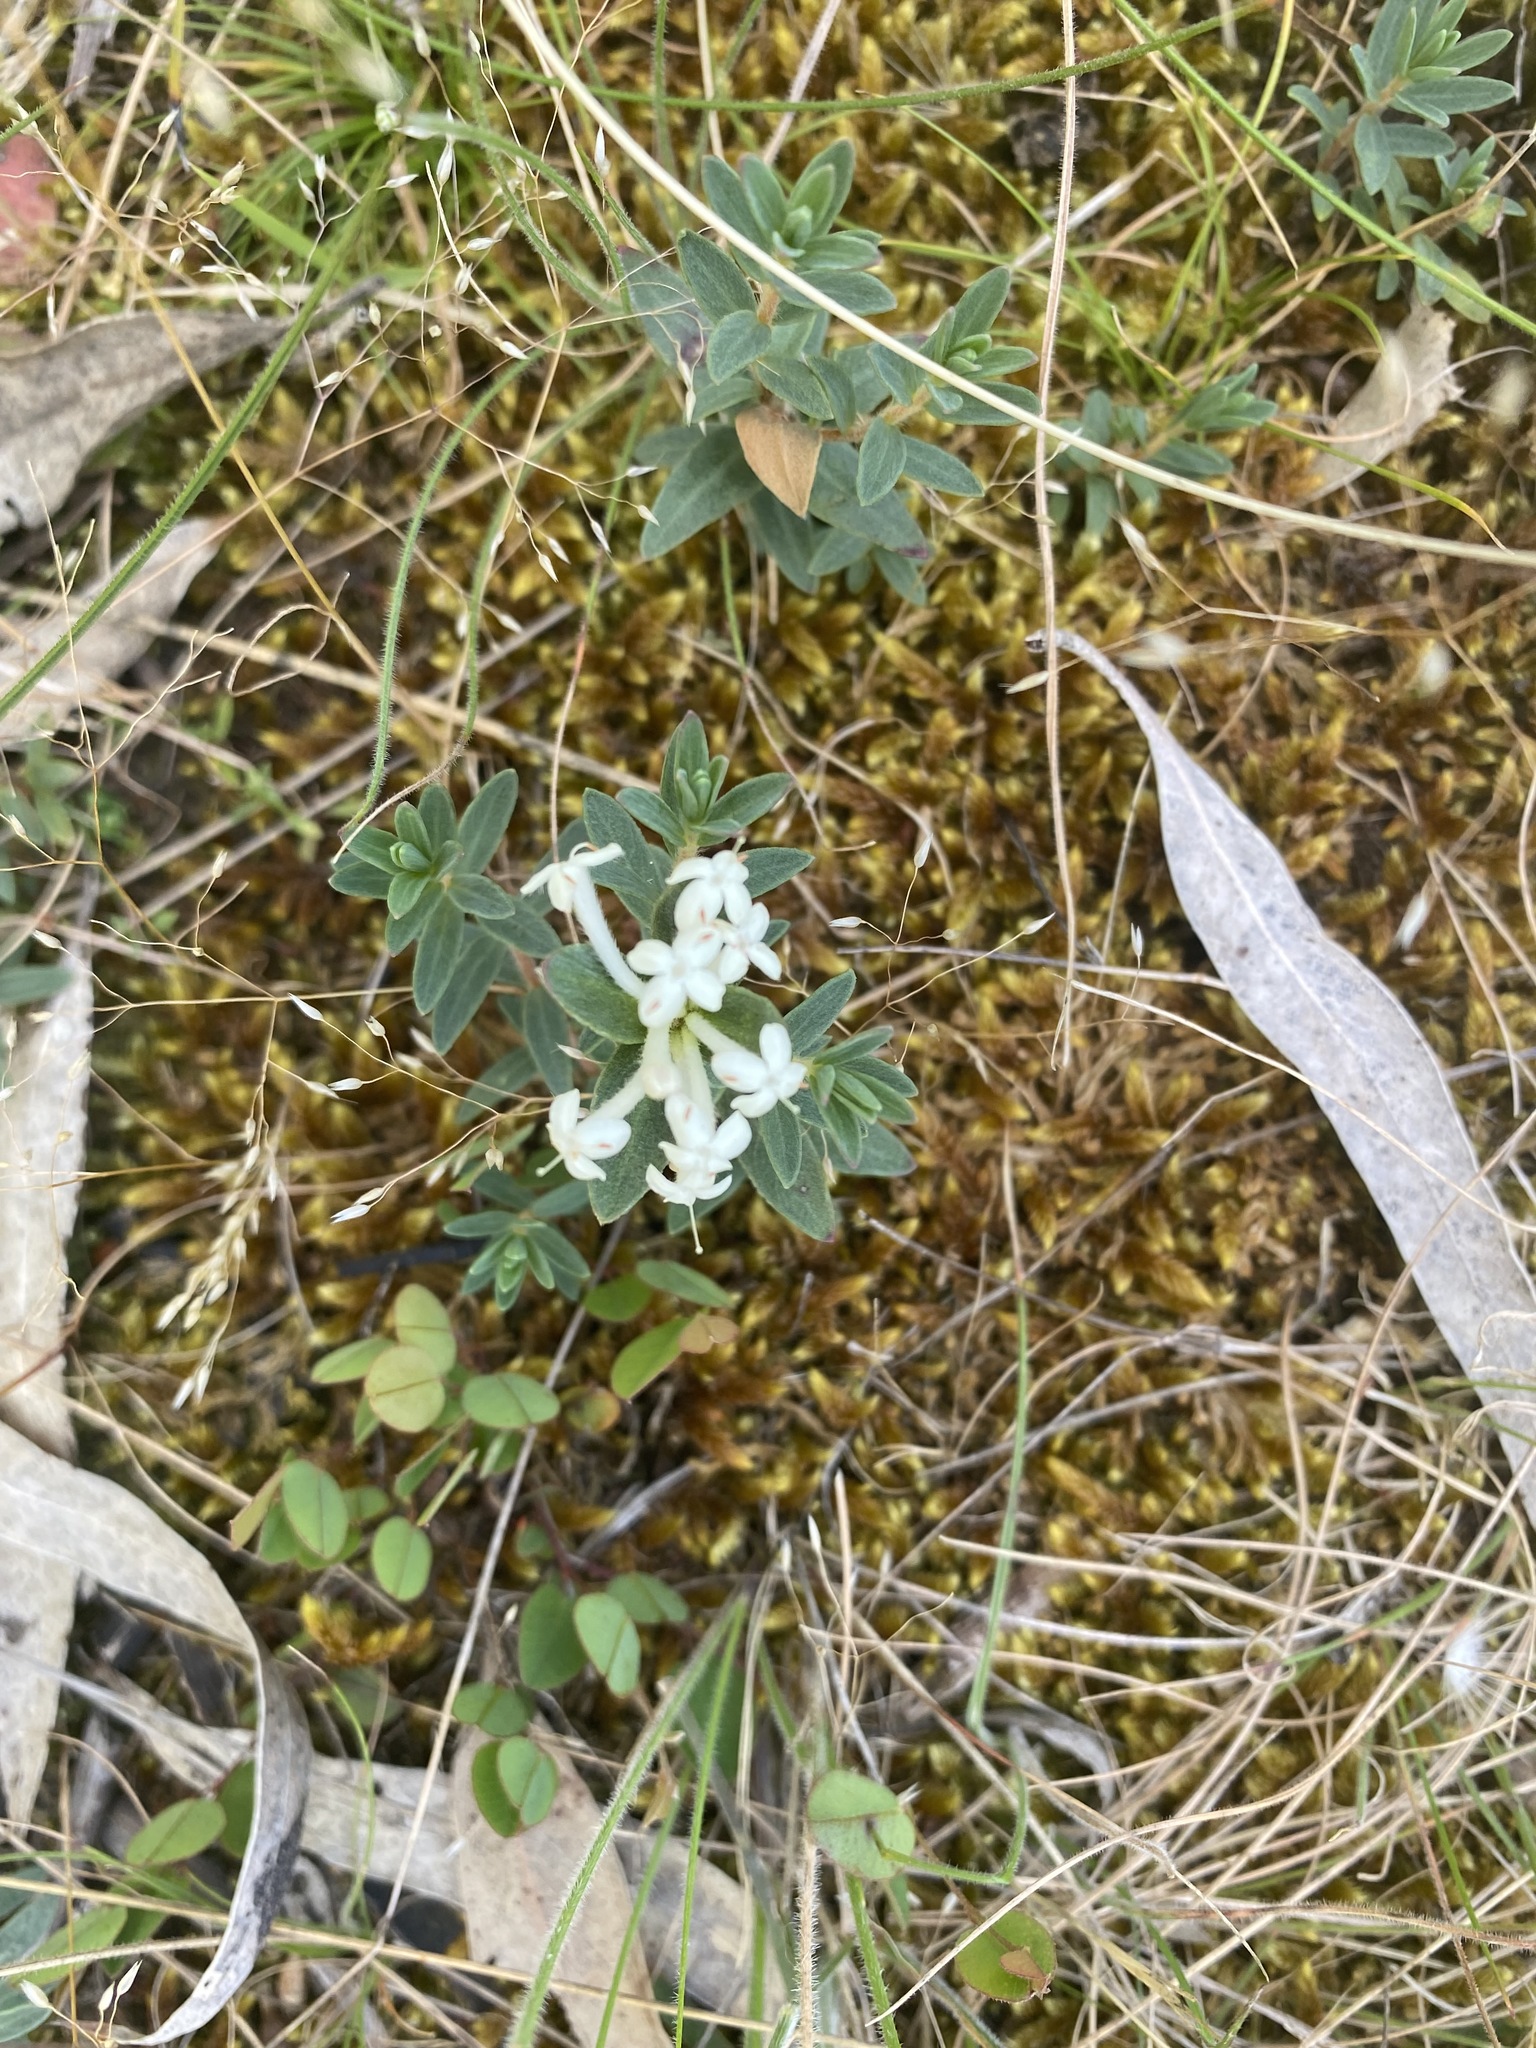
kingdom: Plantae
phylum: Tracheophyta
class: Magnoliopsida
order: Malvales
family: Thymelaeaceae
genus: Pimelea
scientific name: Pimelea humilis
